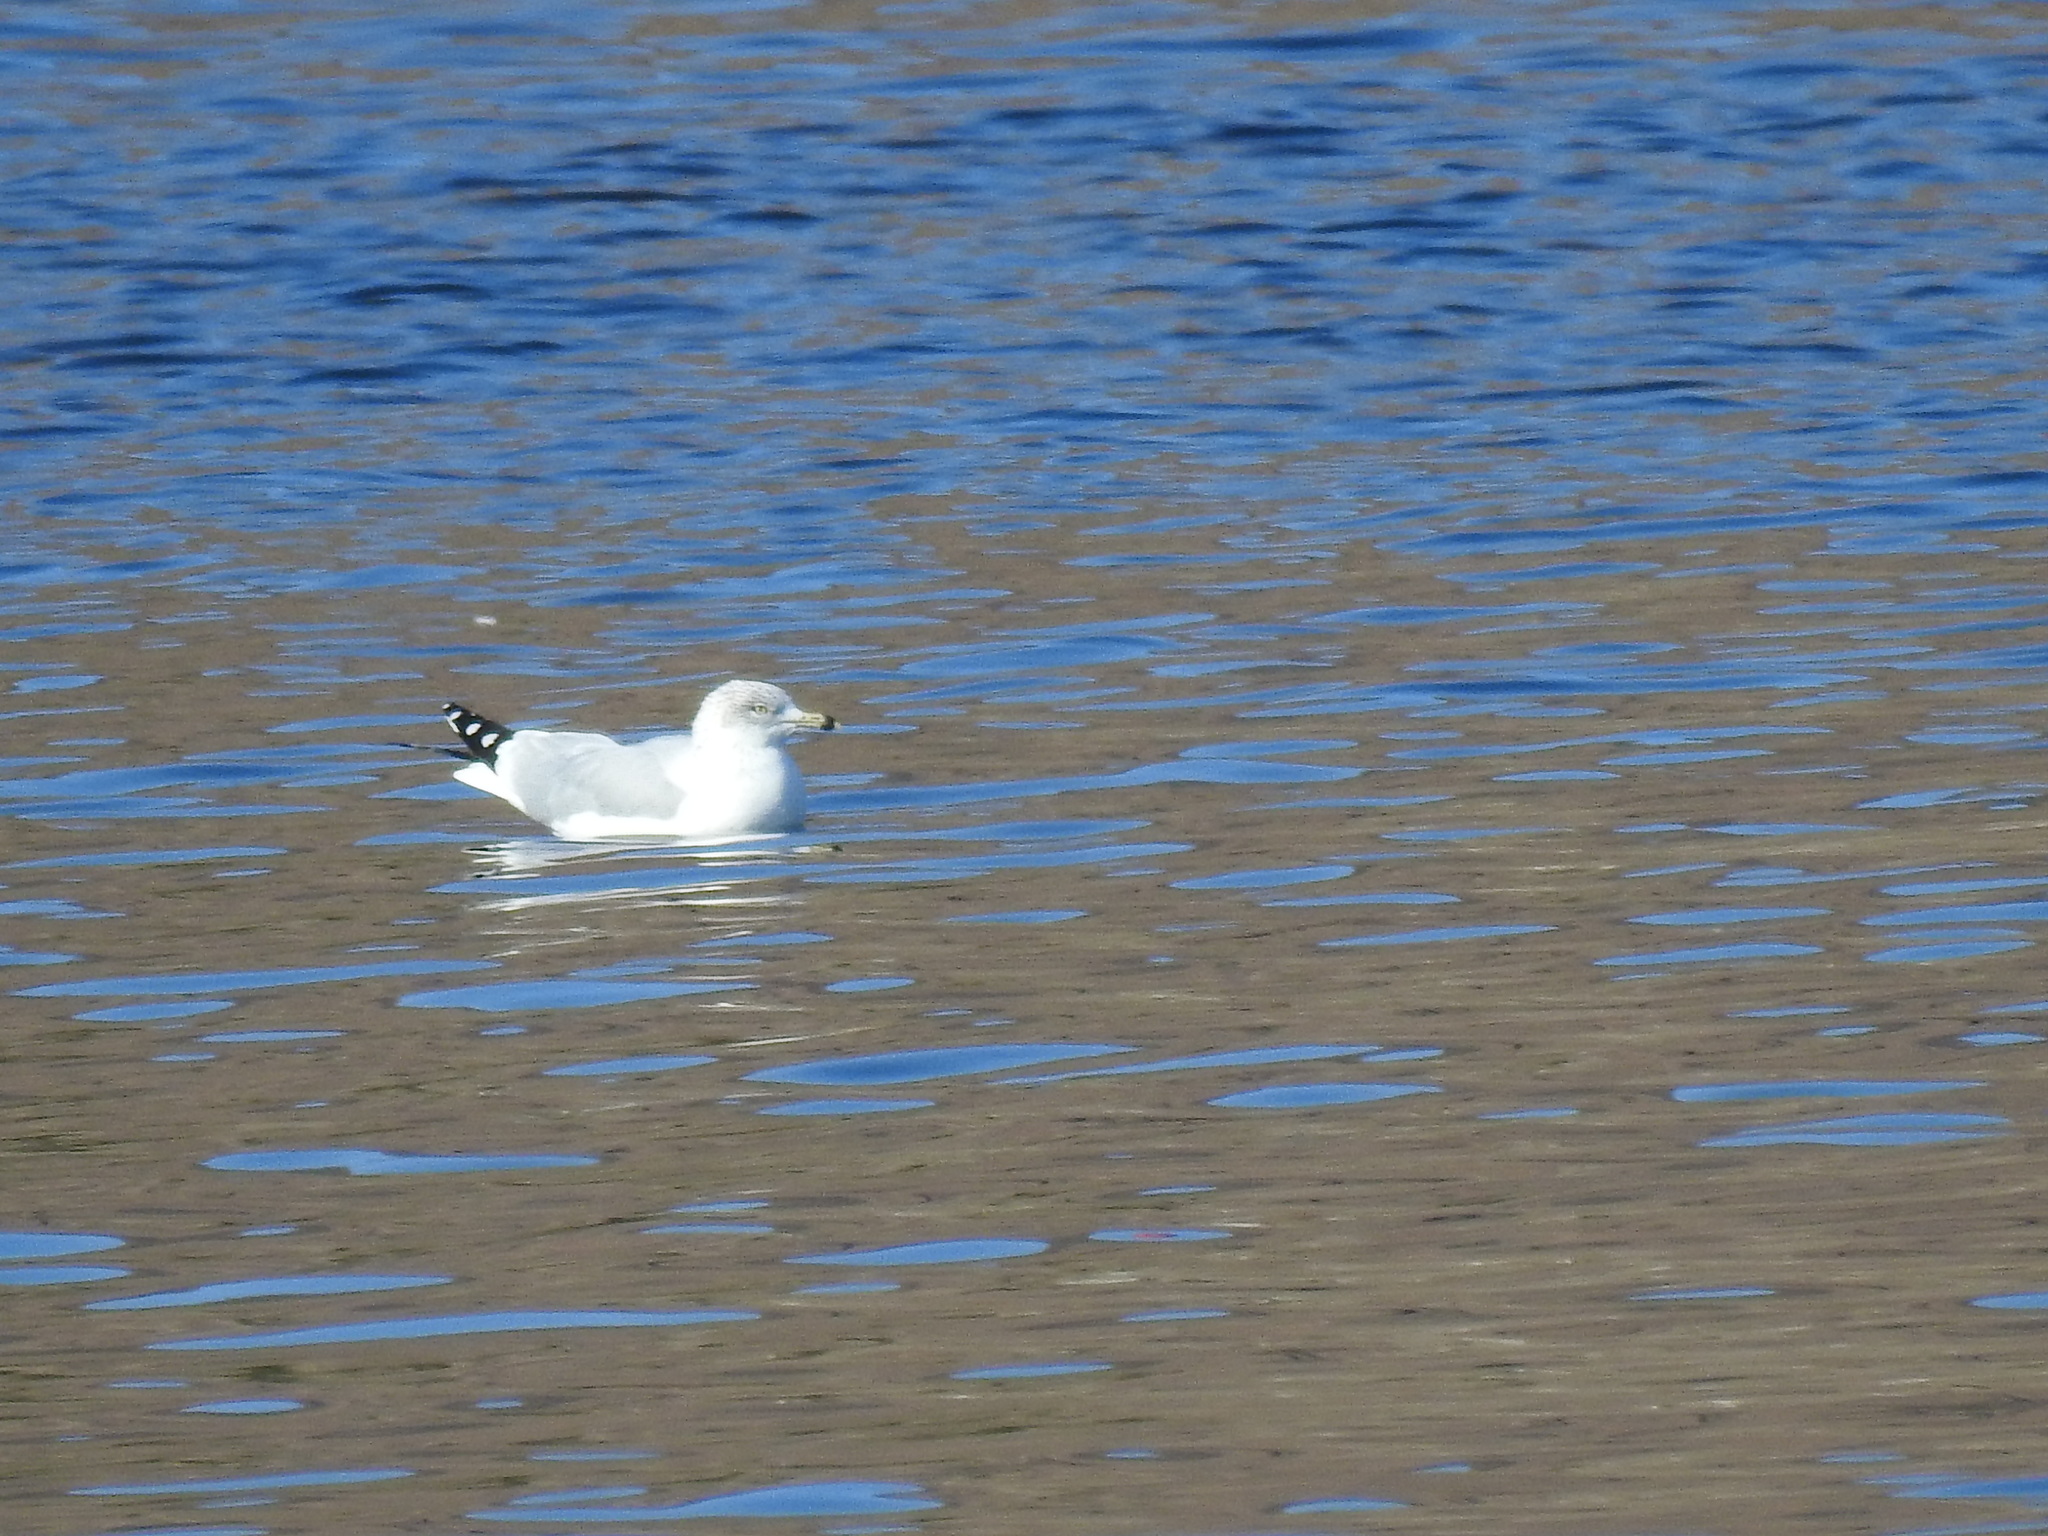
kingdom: Animalia
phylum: Chordata
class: Aves
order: Charadriiformes
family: Laridae
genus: Larus
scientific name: Larus delawarensis
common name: Ring-billed gull
